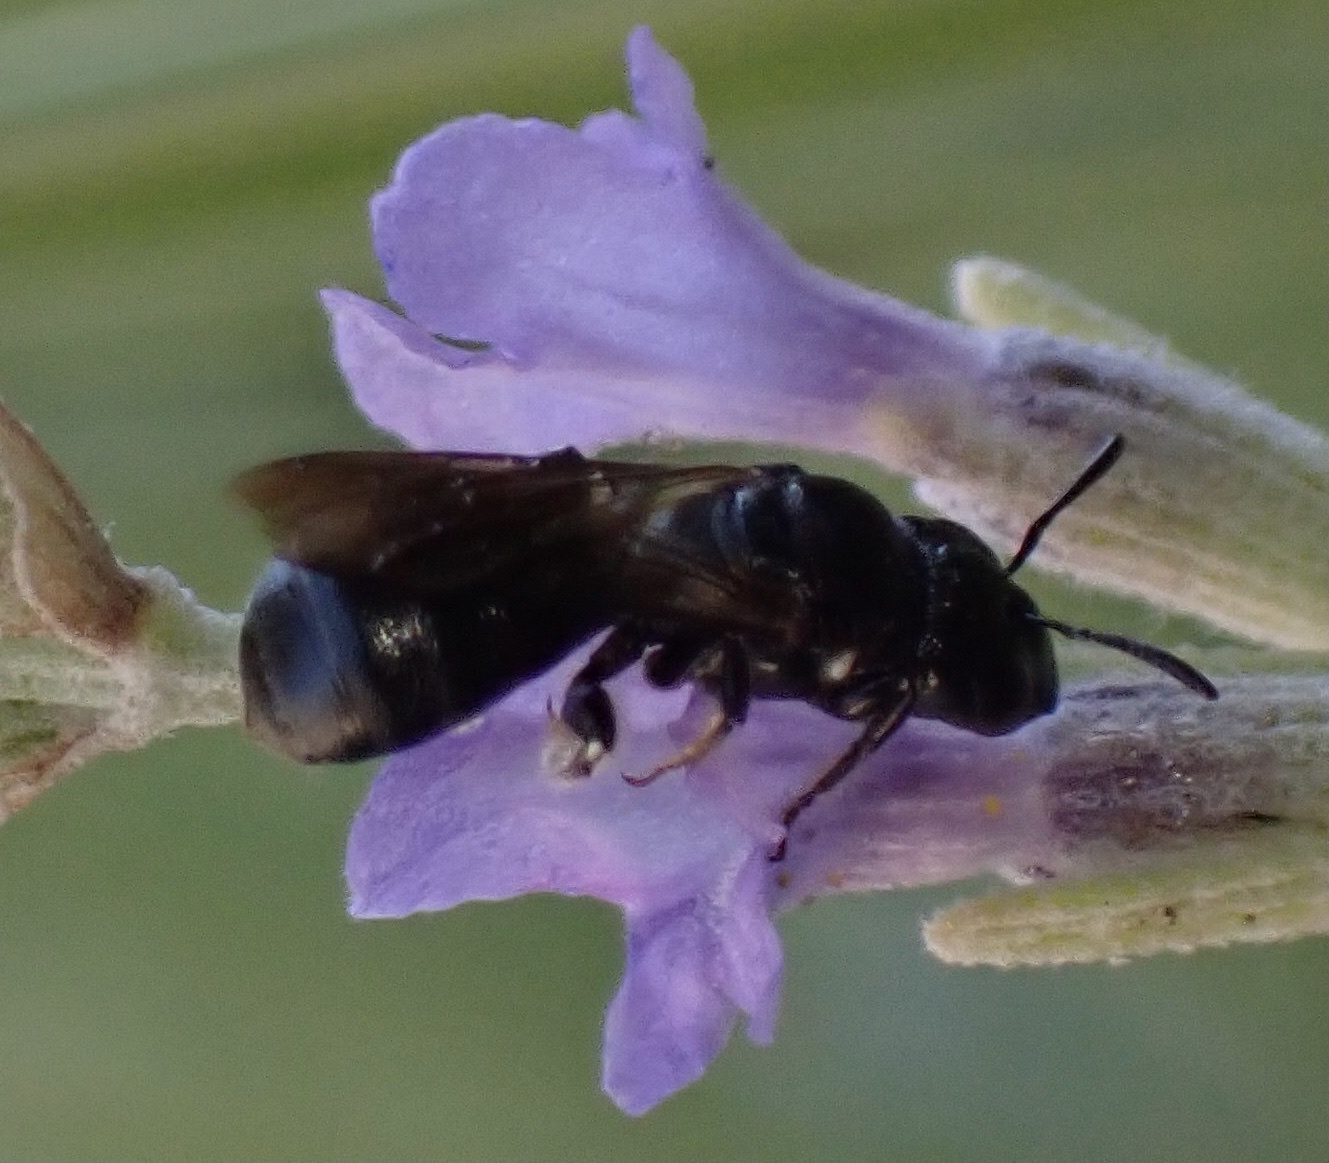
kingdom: Animalia
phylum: Arthropoda
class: Insecta
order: Hymenoptera
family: Apidae
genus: Ceratina
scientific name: Ceratina cucurbitina
